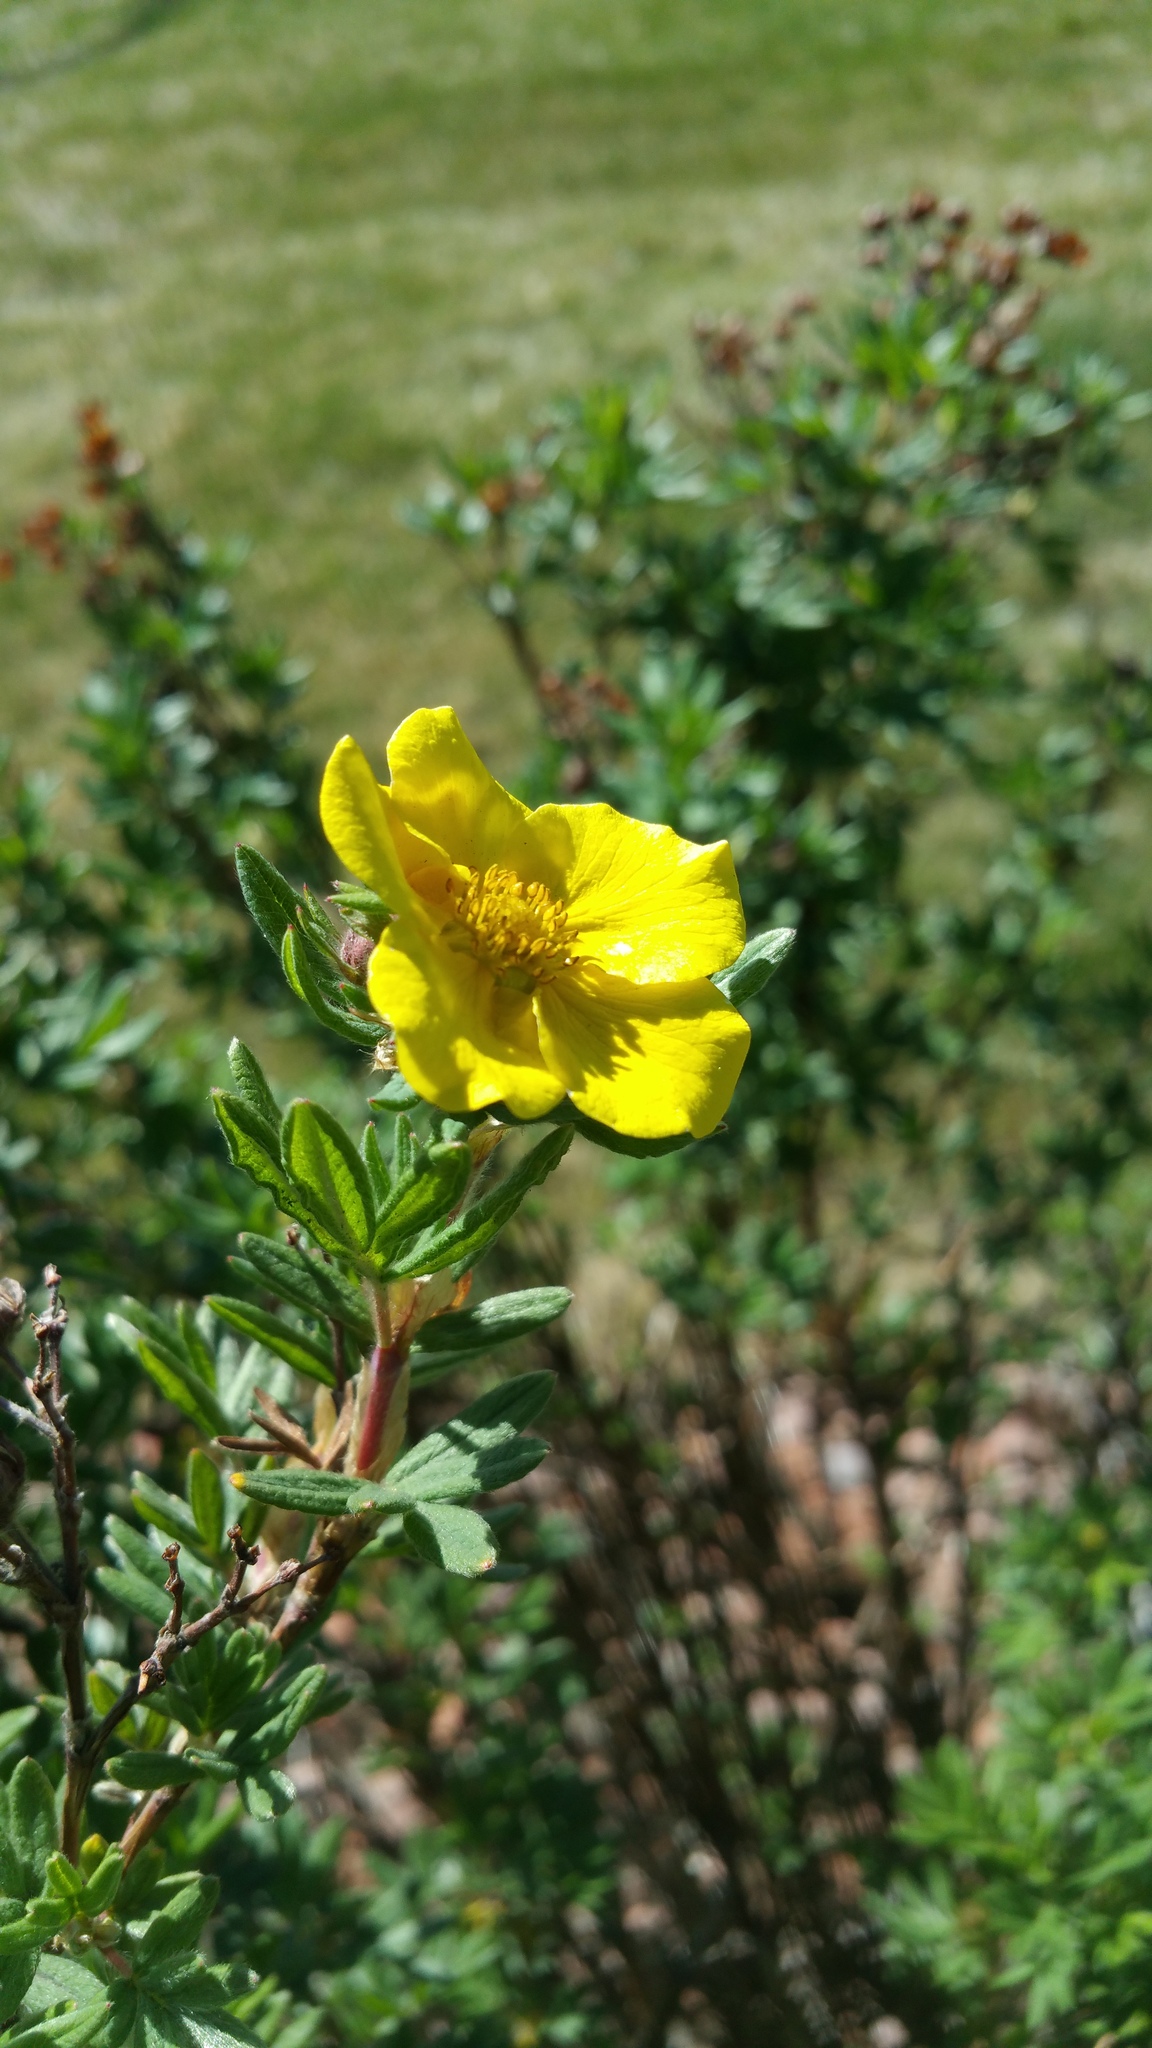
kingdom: Plantae
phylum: Tracheophyta
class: Magnoliopsida
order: Rosales
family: Rosaceae
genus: Dasiphora
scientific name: Dasiphora fruticosa
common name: Shrubby cinquefoil
